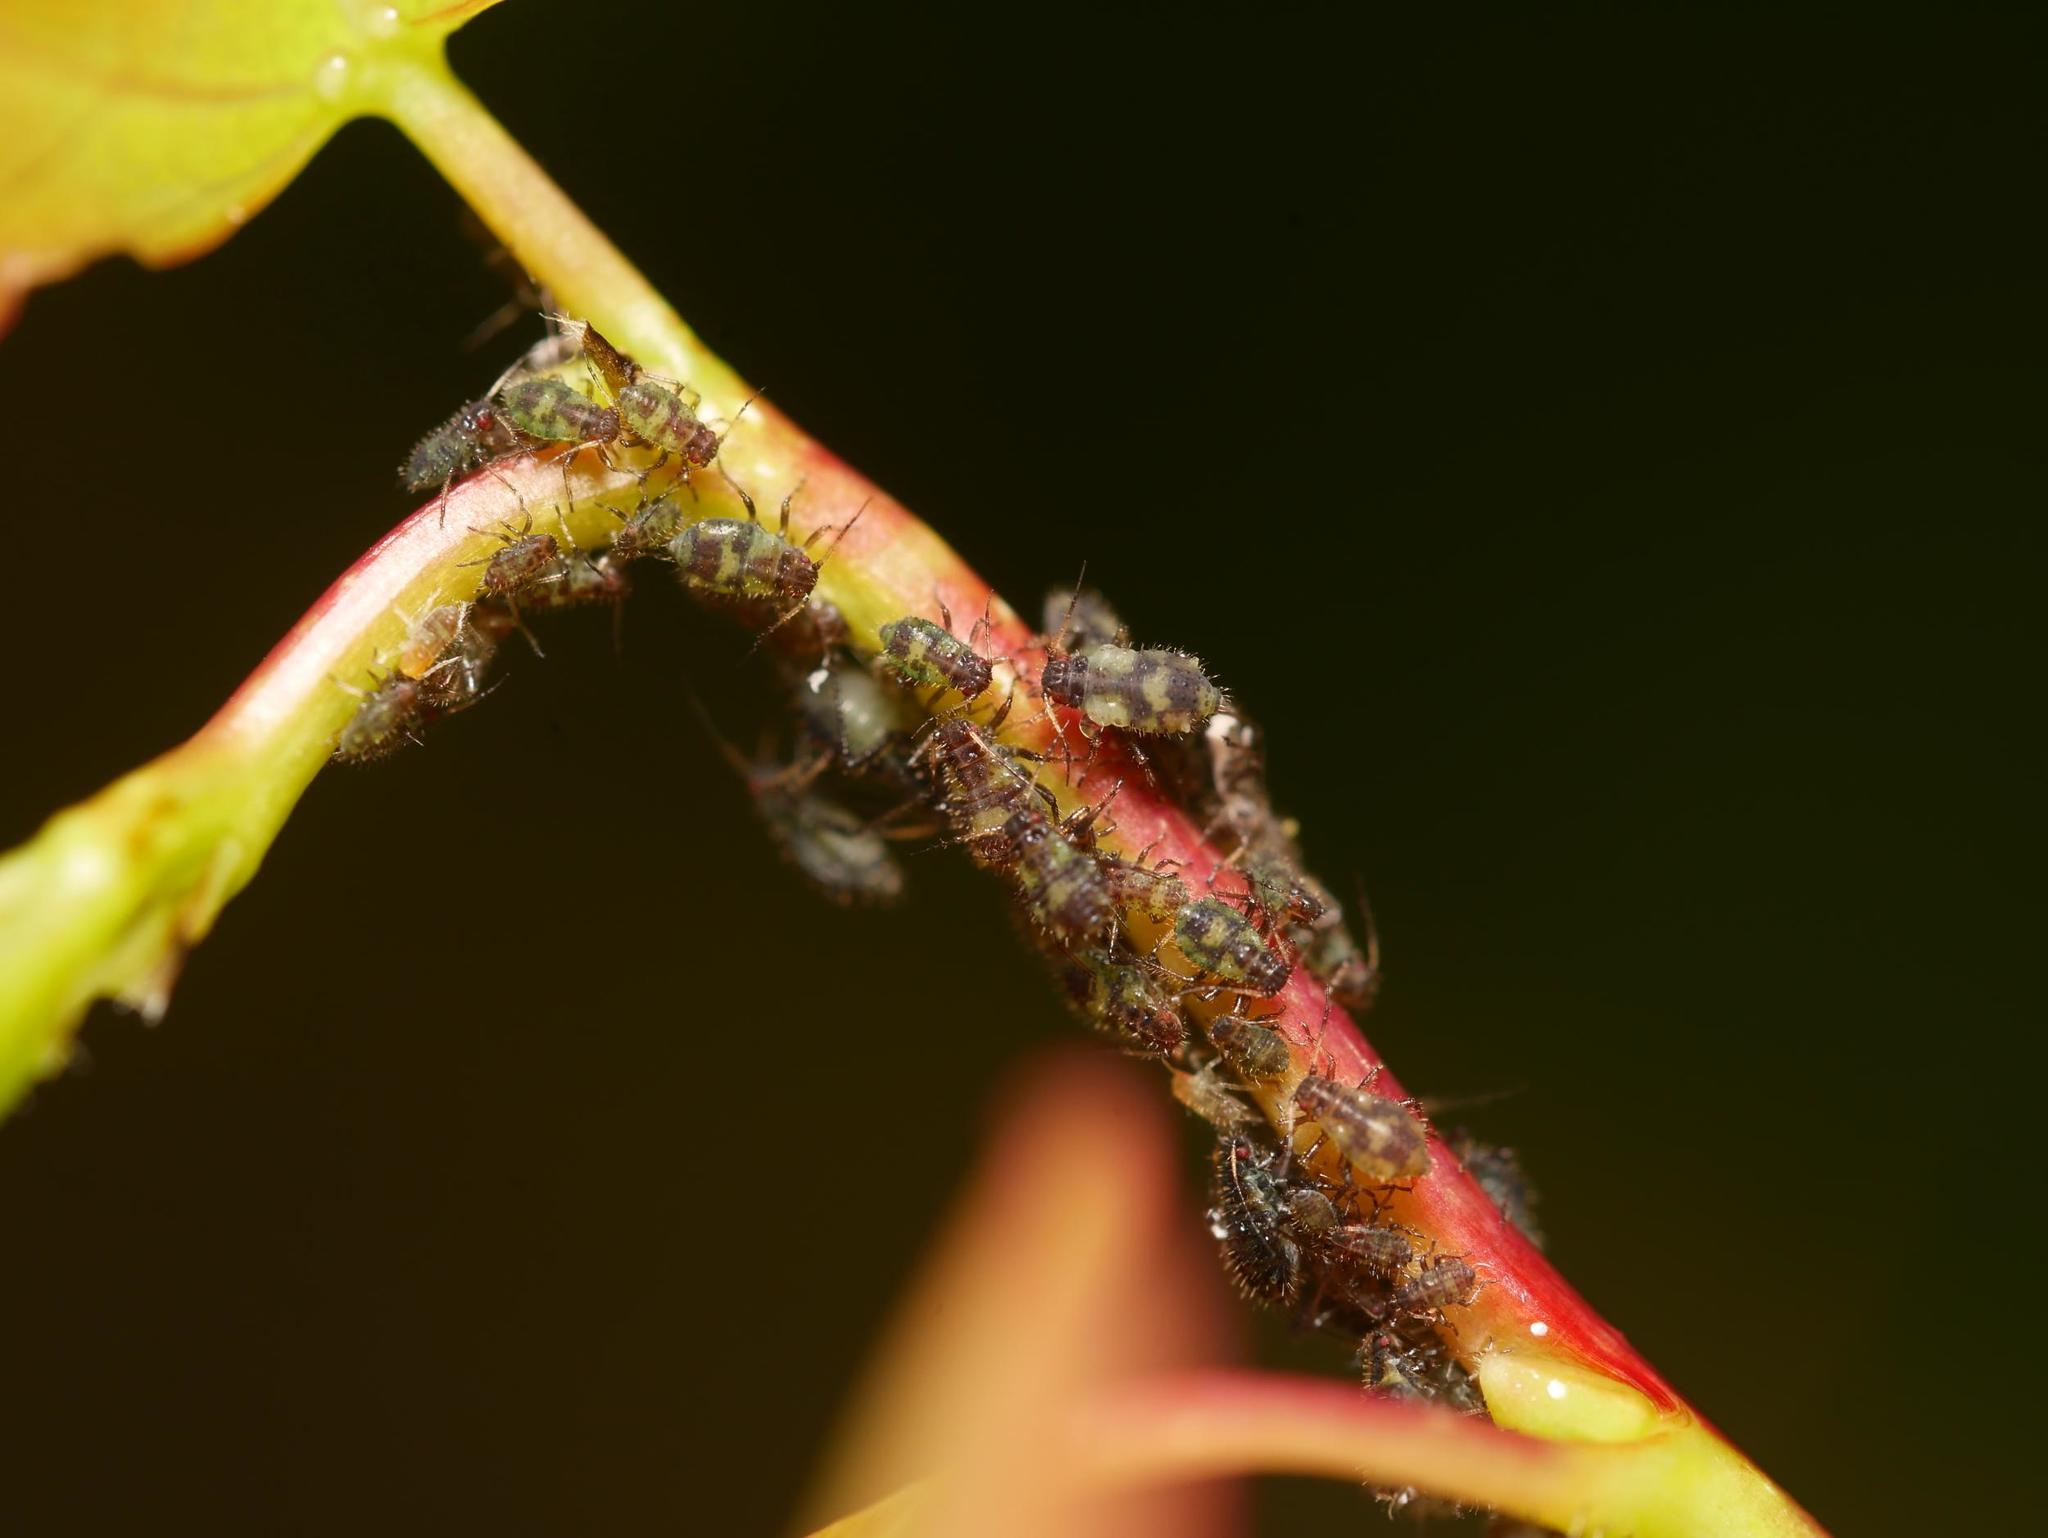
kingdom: Animalia
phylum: Arthropoda
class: Insecta
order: Hemiptera
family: Aphididae
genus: Chaitophorus
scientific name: Chaitophorus populeti
